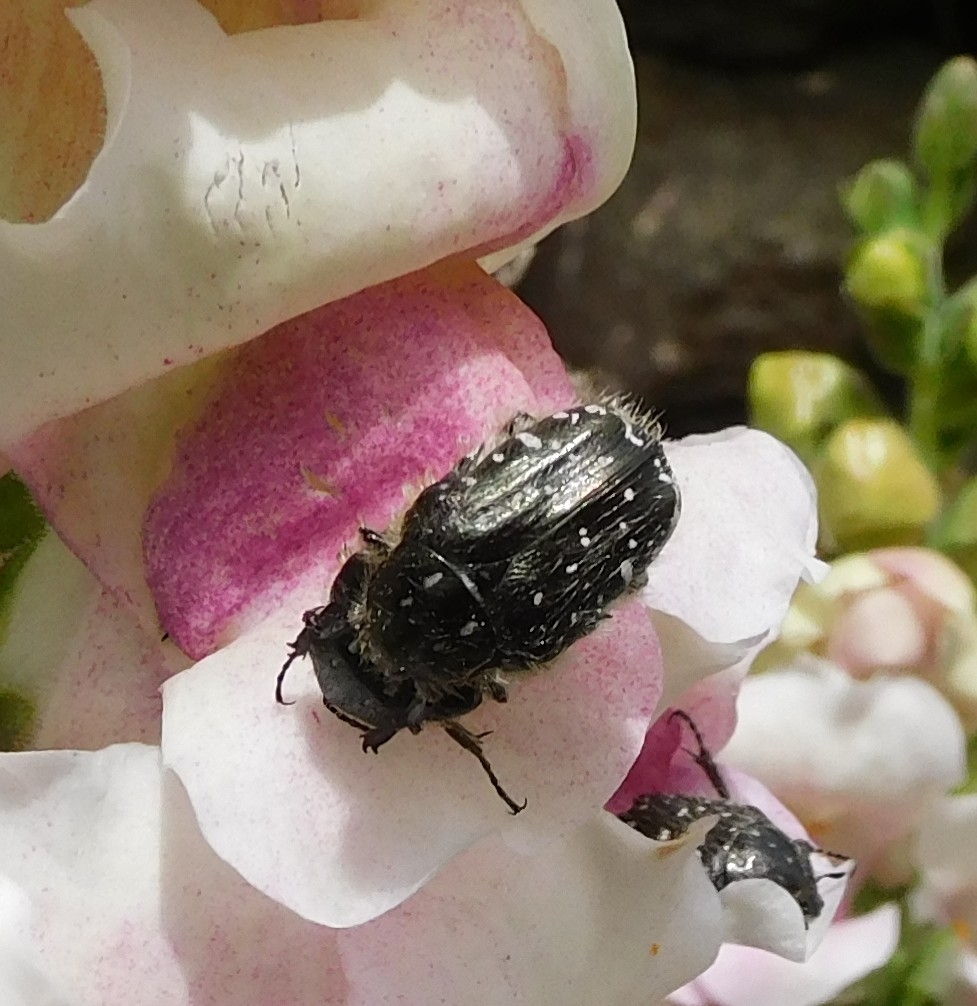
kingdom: Animalia
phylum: Arthropoda
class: Insecta
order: Coleoptera
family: Scarabaeidae
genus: Oxythyrea
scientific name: Oxythyrea funesta
